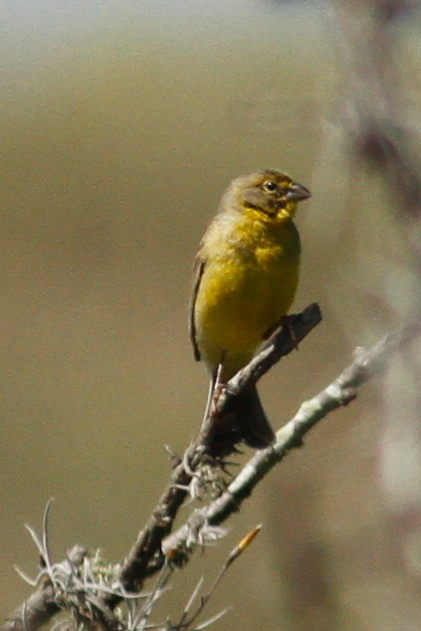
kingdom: Animalia
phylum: Chordata
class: Aves
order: Passeriformes
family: Thraupidae
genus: Sicalis
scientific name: Sicalis luteola
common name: Grassland yellow-finch
